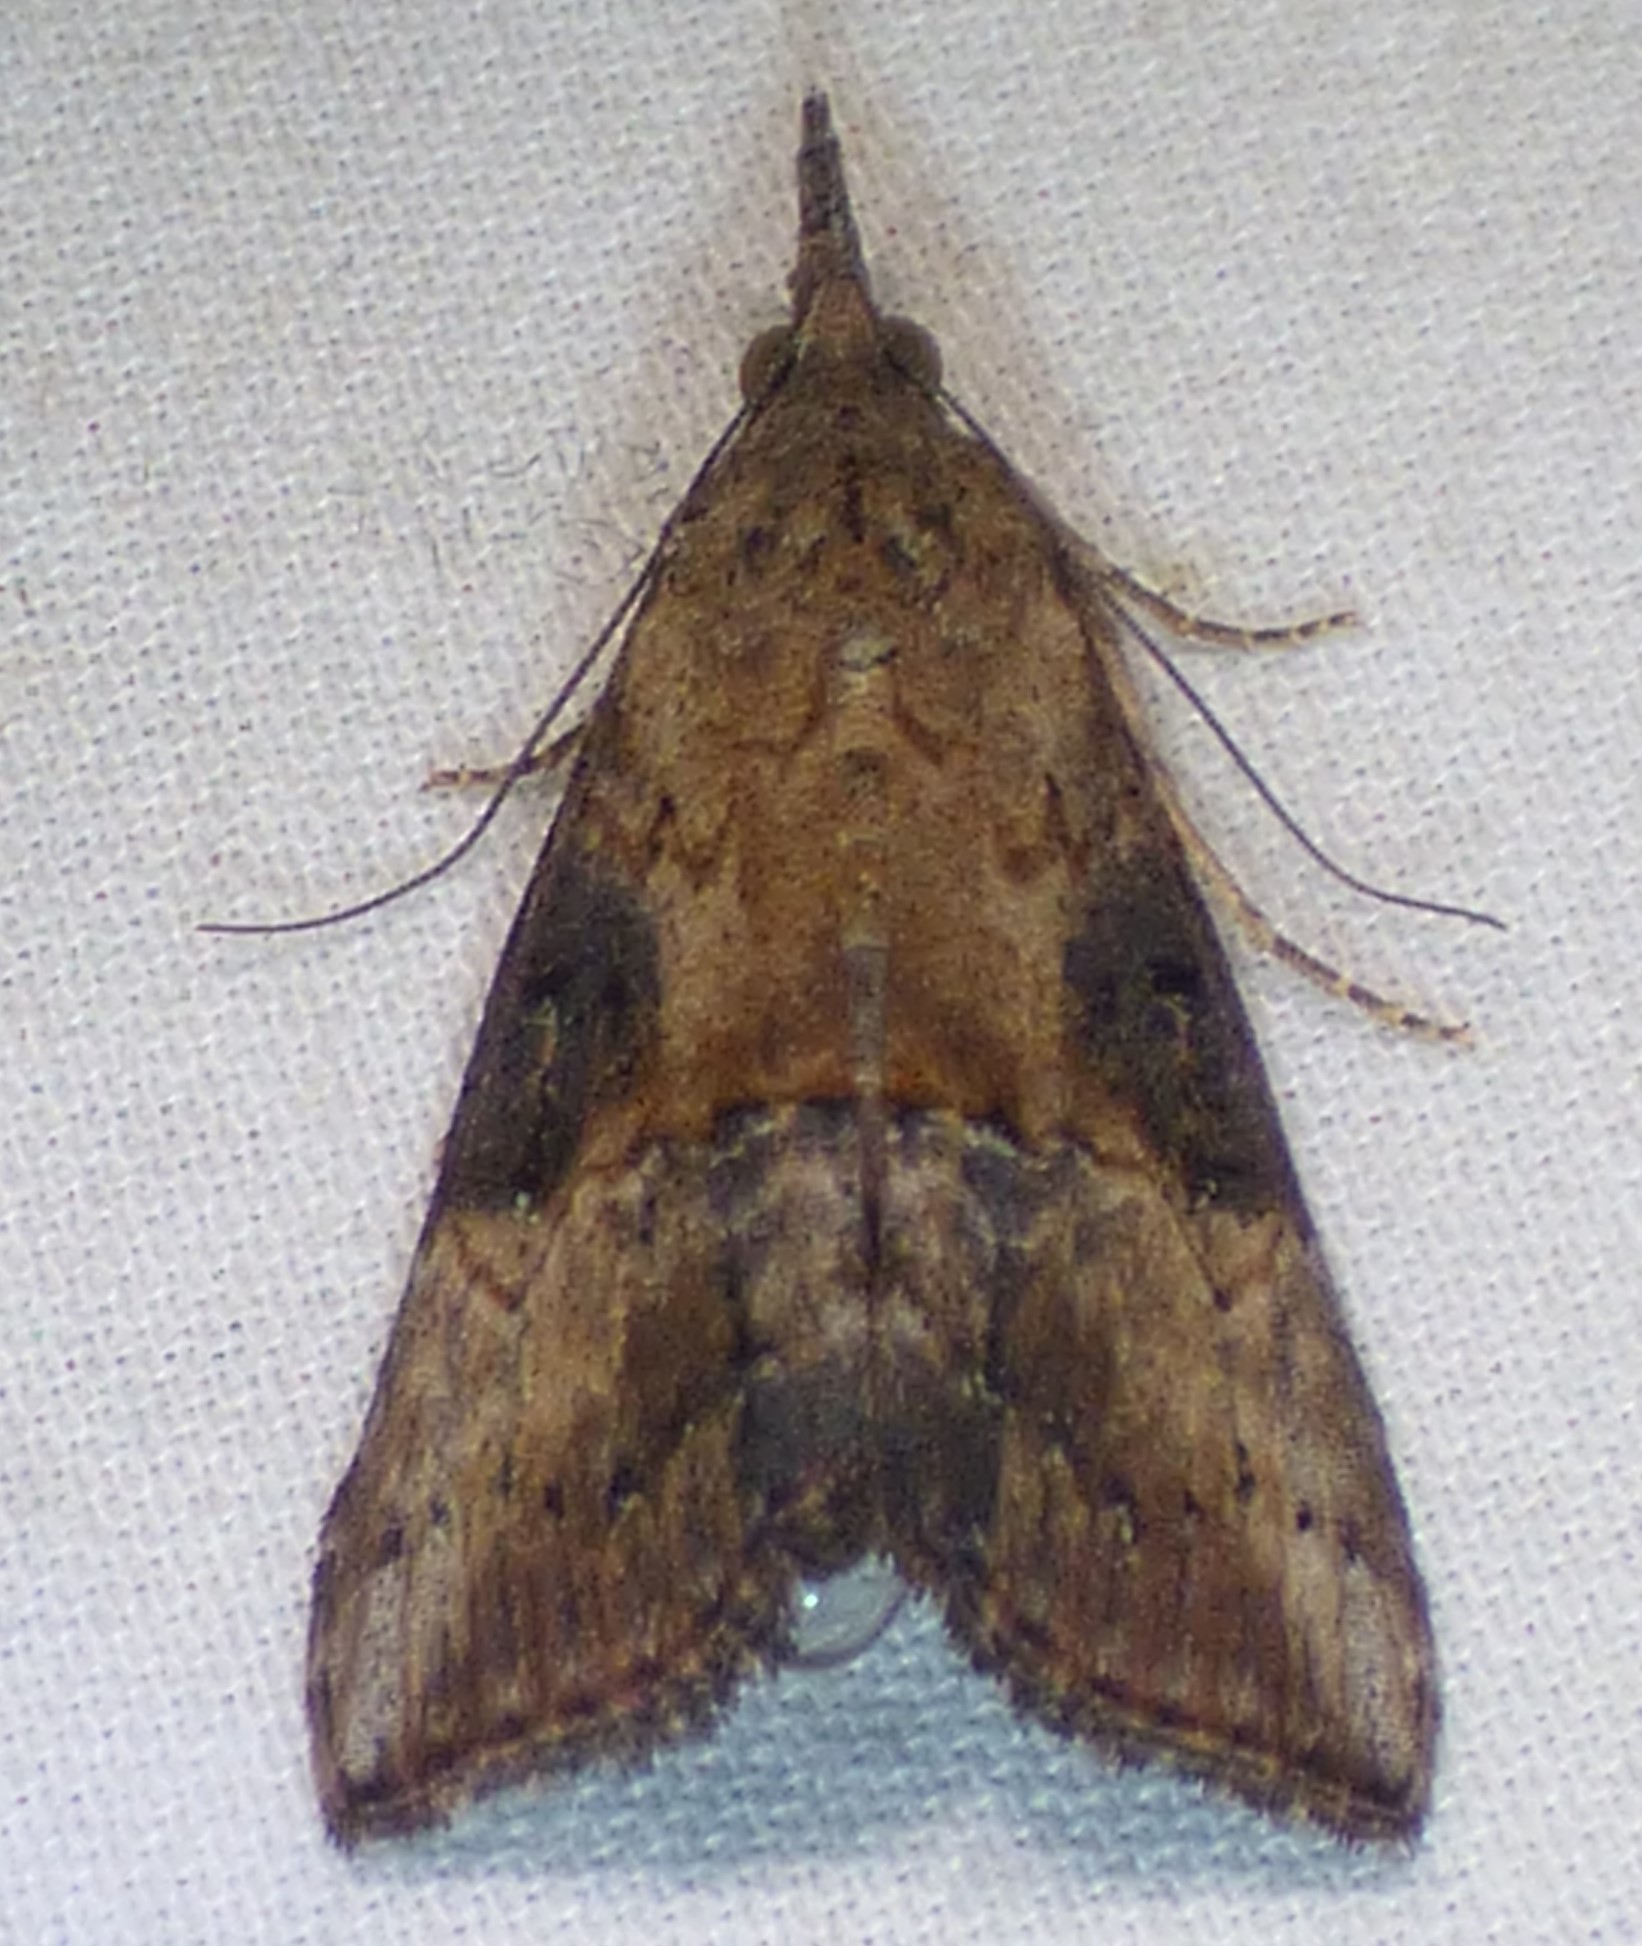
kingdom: Animalia
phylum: Arthropoda
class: Insecta
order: Lepidoptera
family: Erebidae
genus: Hypena
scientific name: Hypena scabra
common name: Green cloverworm
